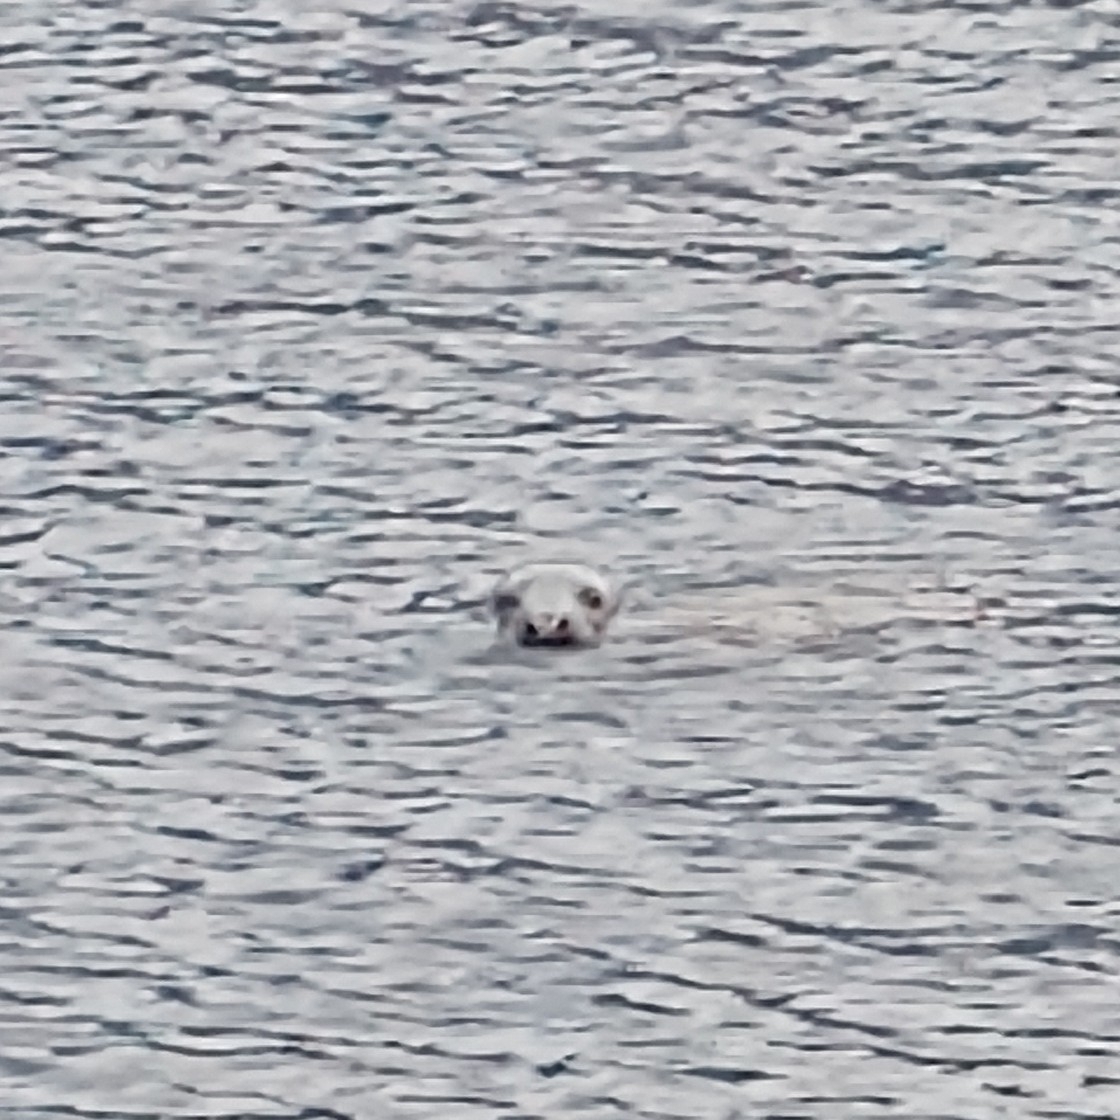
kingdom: Animalia
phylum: Chordata
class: Mammalia
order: Carnivora
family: Phocidae
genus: Halichoerus
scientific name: Halichoerus grypus
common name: Grey seal
